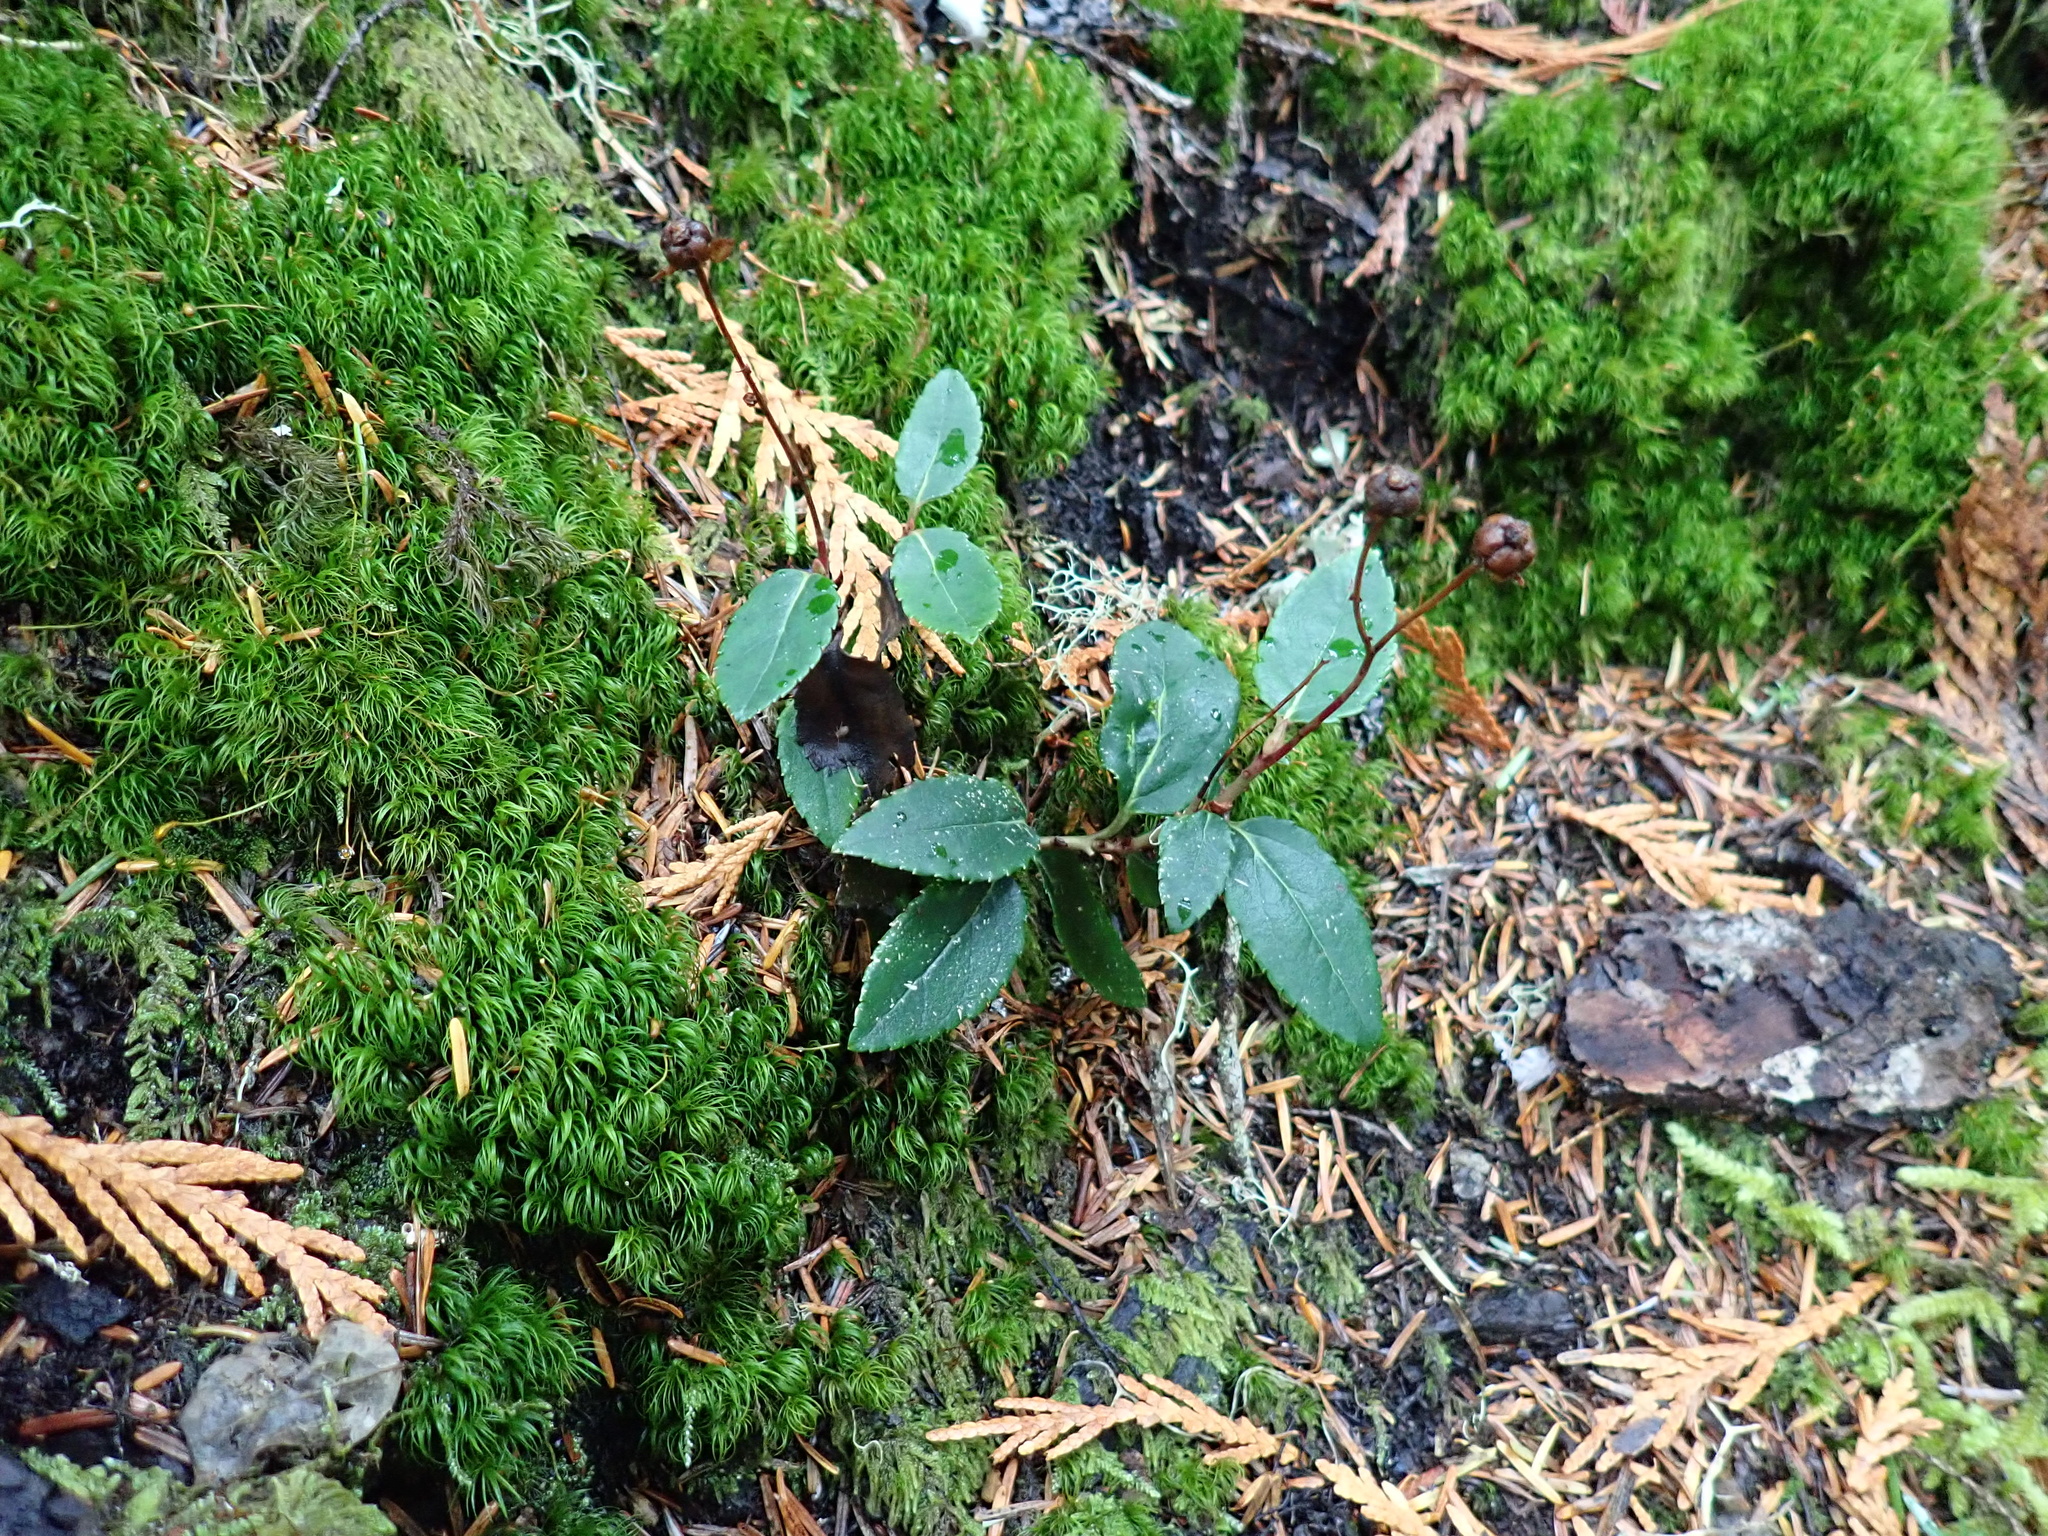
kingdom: Plantae
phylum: Tracheophyta
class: Magnoliopsida
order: Ericales
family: Ericaceae
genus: Chimaphila
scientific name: Chimaphila menziesii
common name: Menzies' pipsissewa
